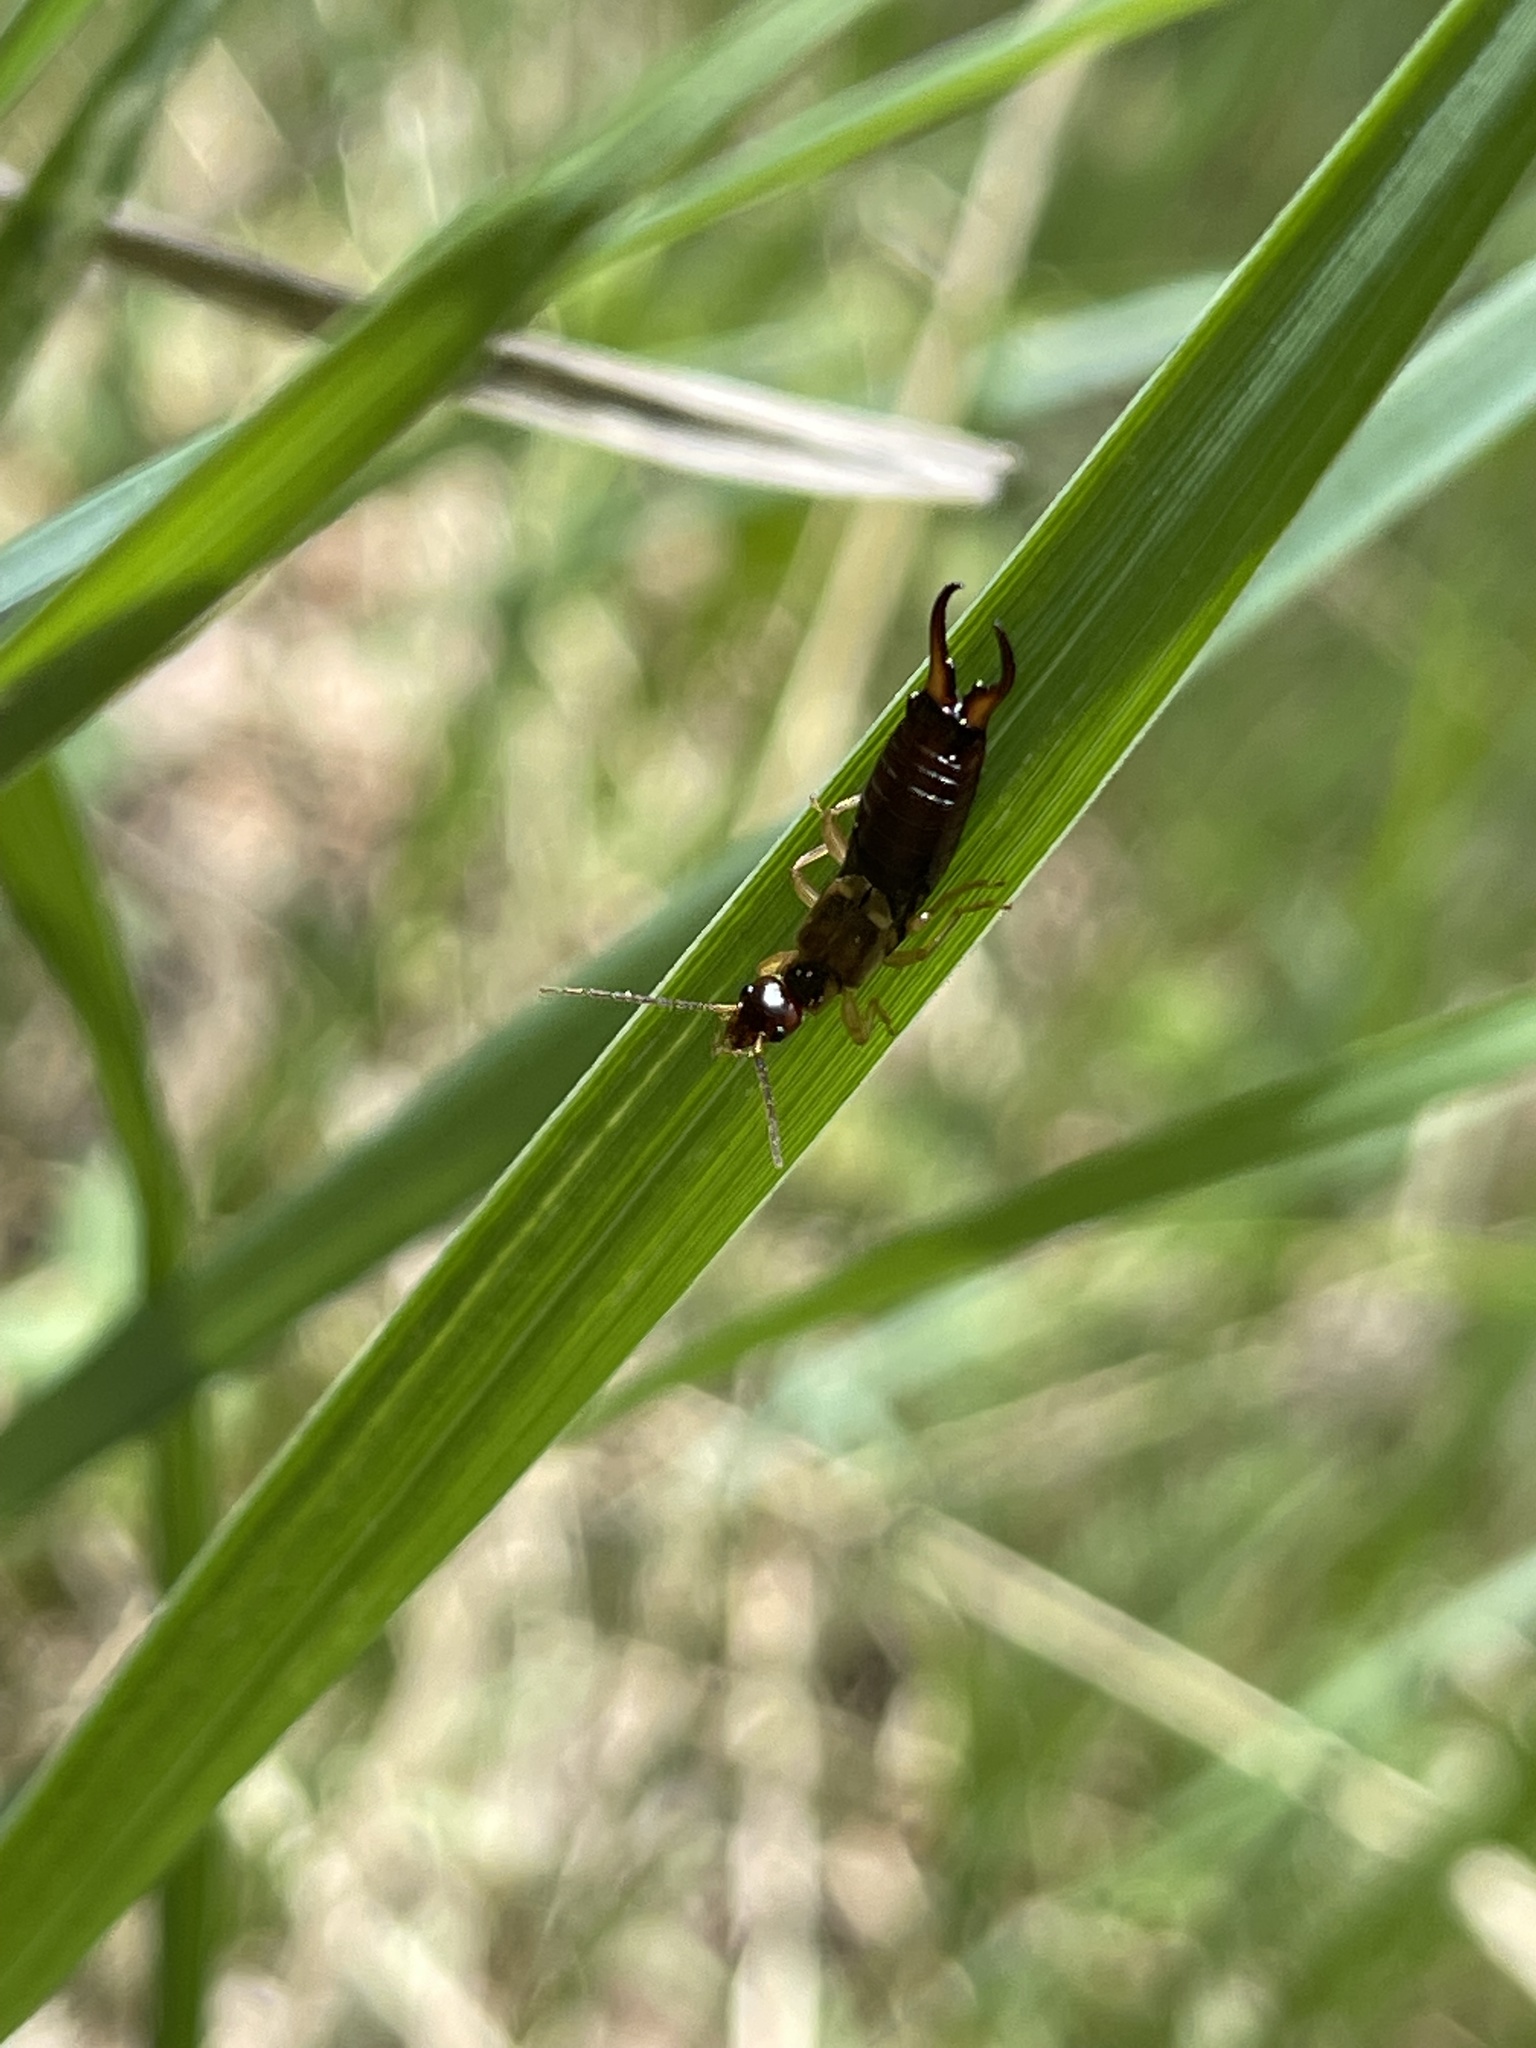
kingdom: Animalia
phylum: Arthropoda
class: Insecta
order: Dermaptera
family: Forficulidae
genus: Forficula
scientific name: Forficula
